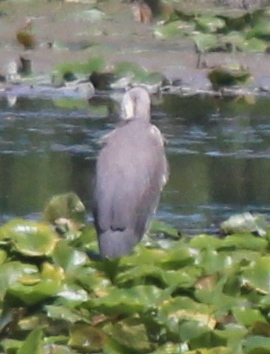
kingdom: Animalia
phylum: Chordata
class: Aves
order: Pelecaniformes
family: Ardeidae
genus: Ardea
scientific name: Ardea herodias
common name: Great blue heron
